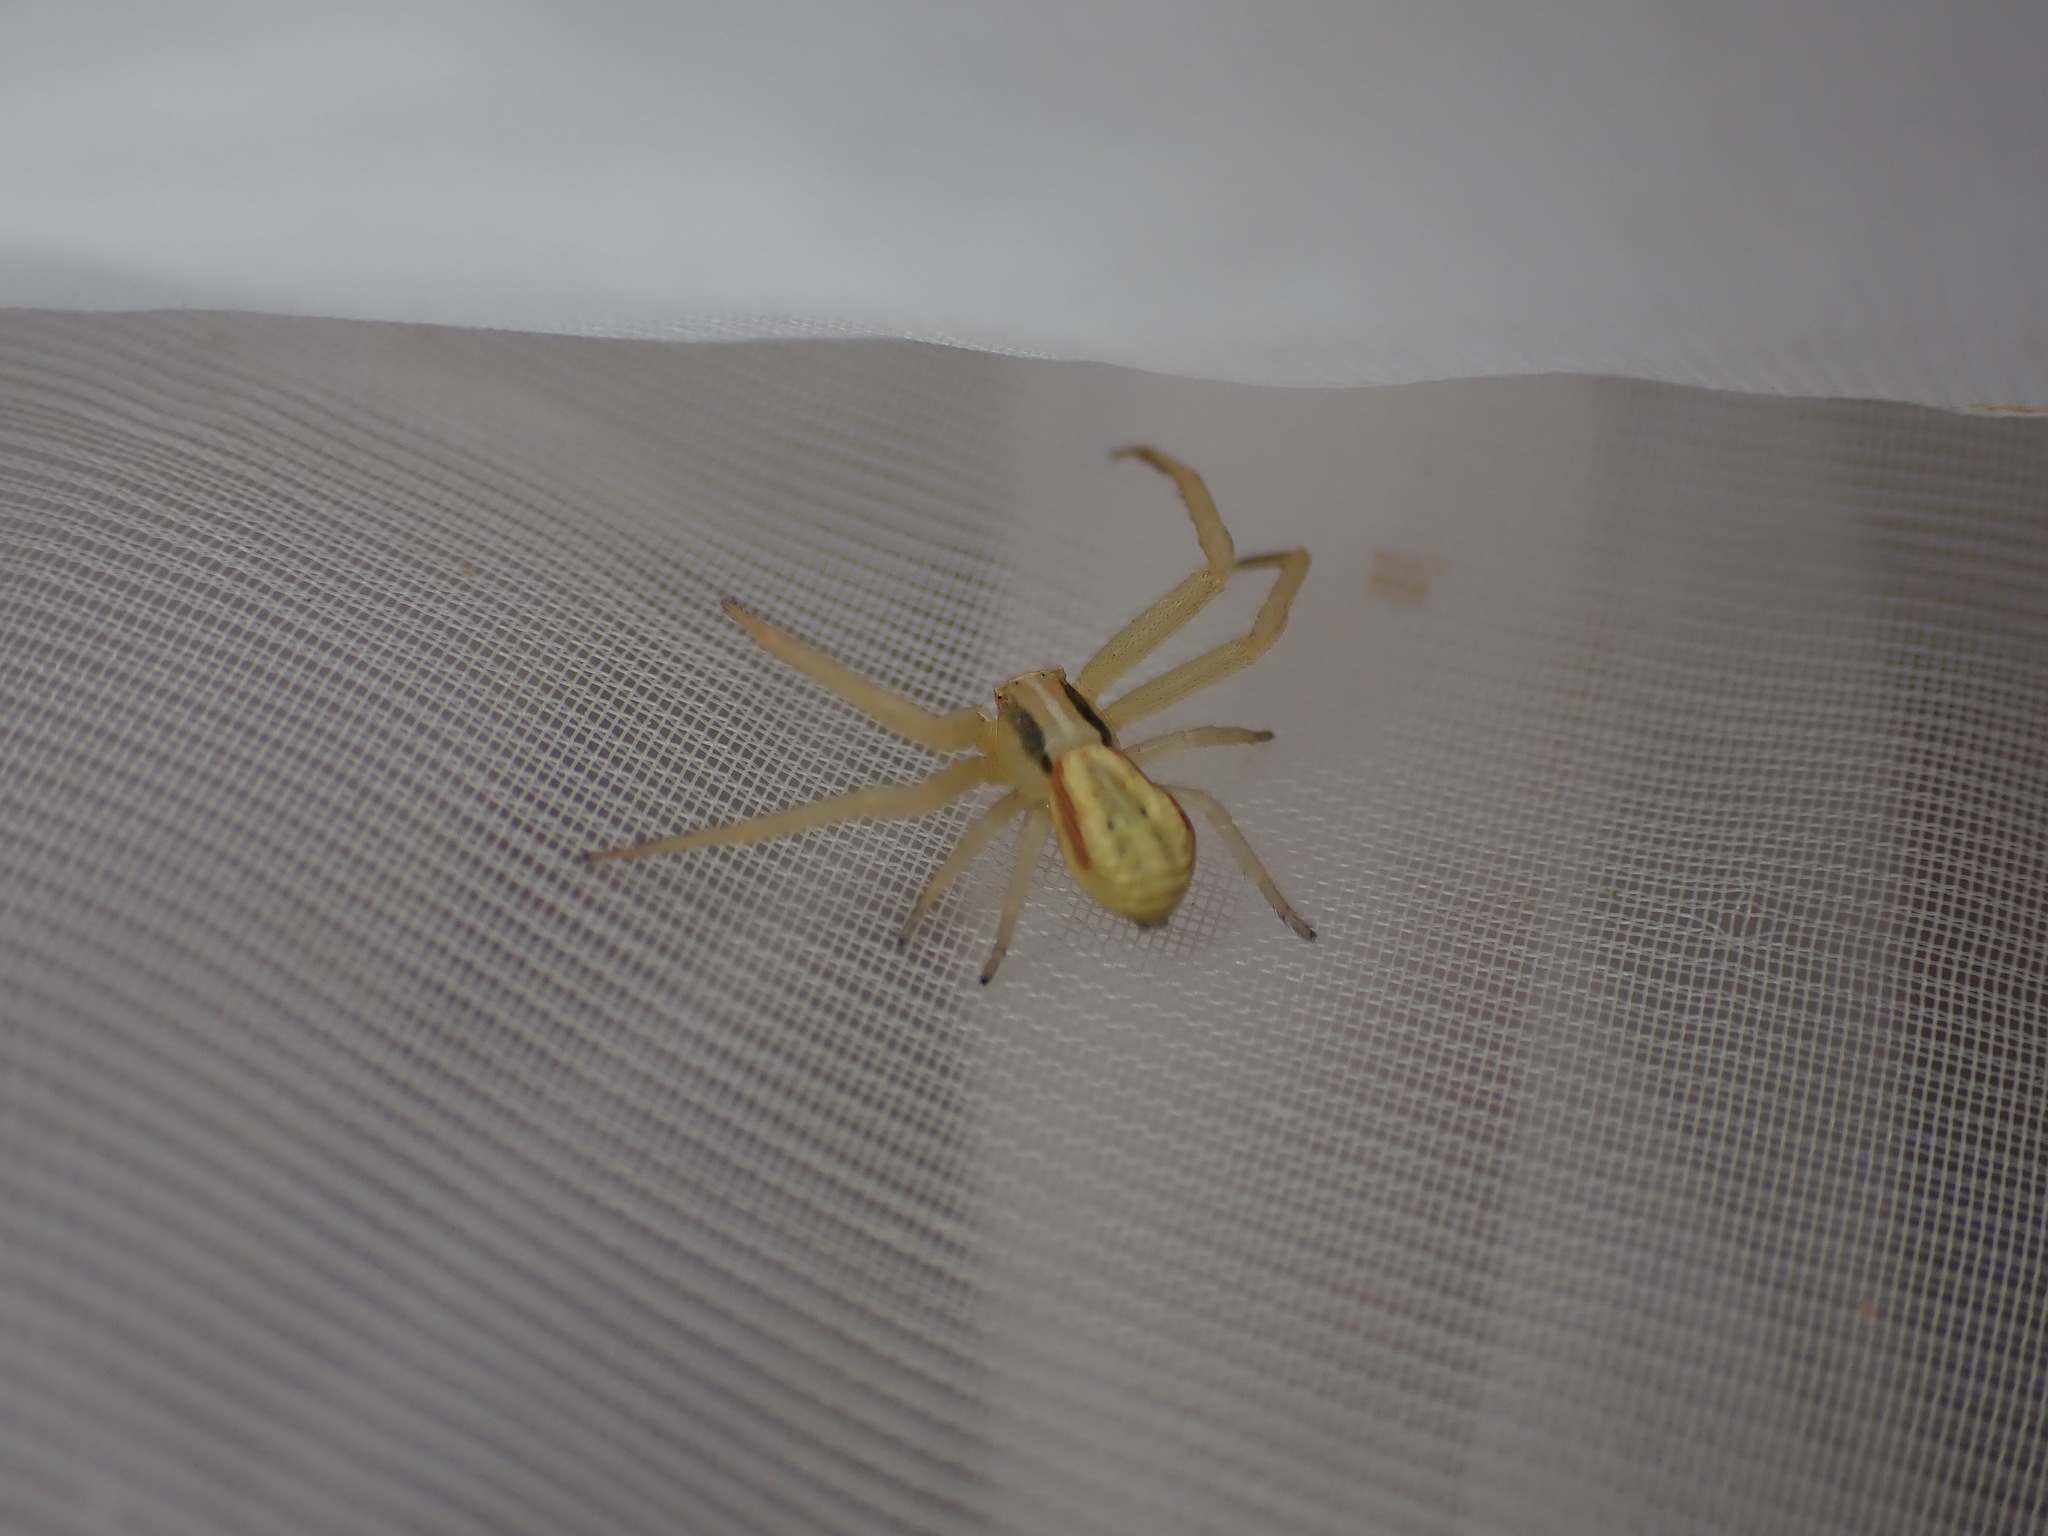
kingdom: Animalia
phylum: Arthropoda
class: Arachnida
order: Araneae
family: Thomisidae
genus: Runcinia
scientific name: Runcinia grammica
